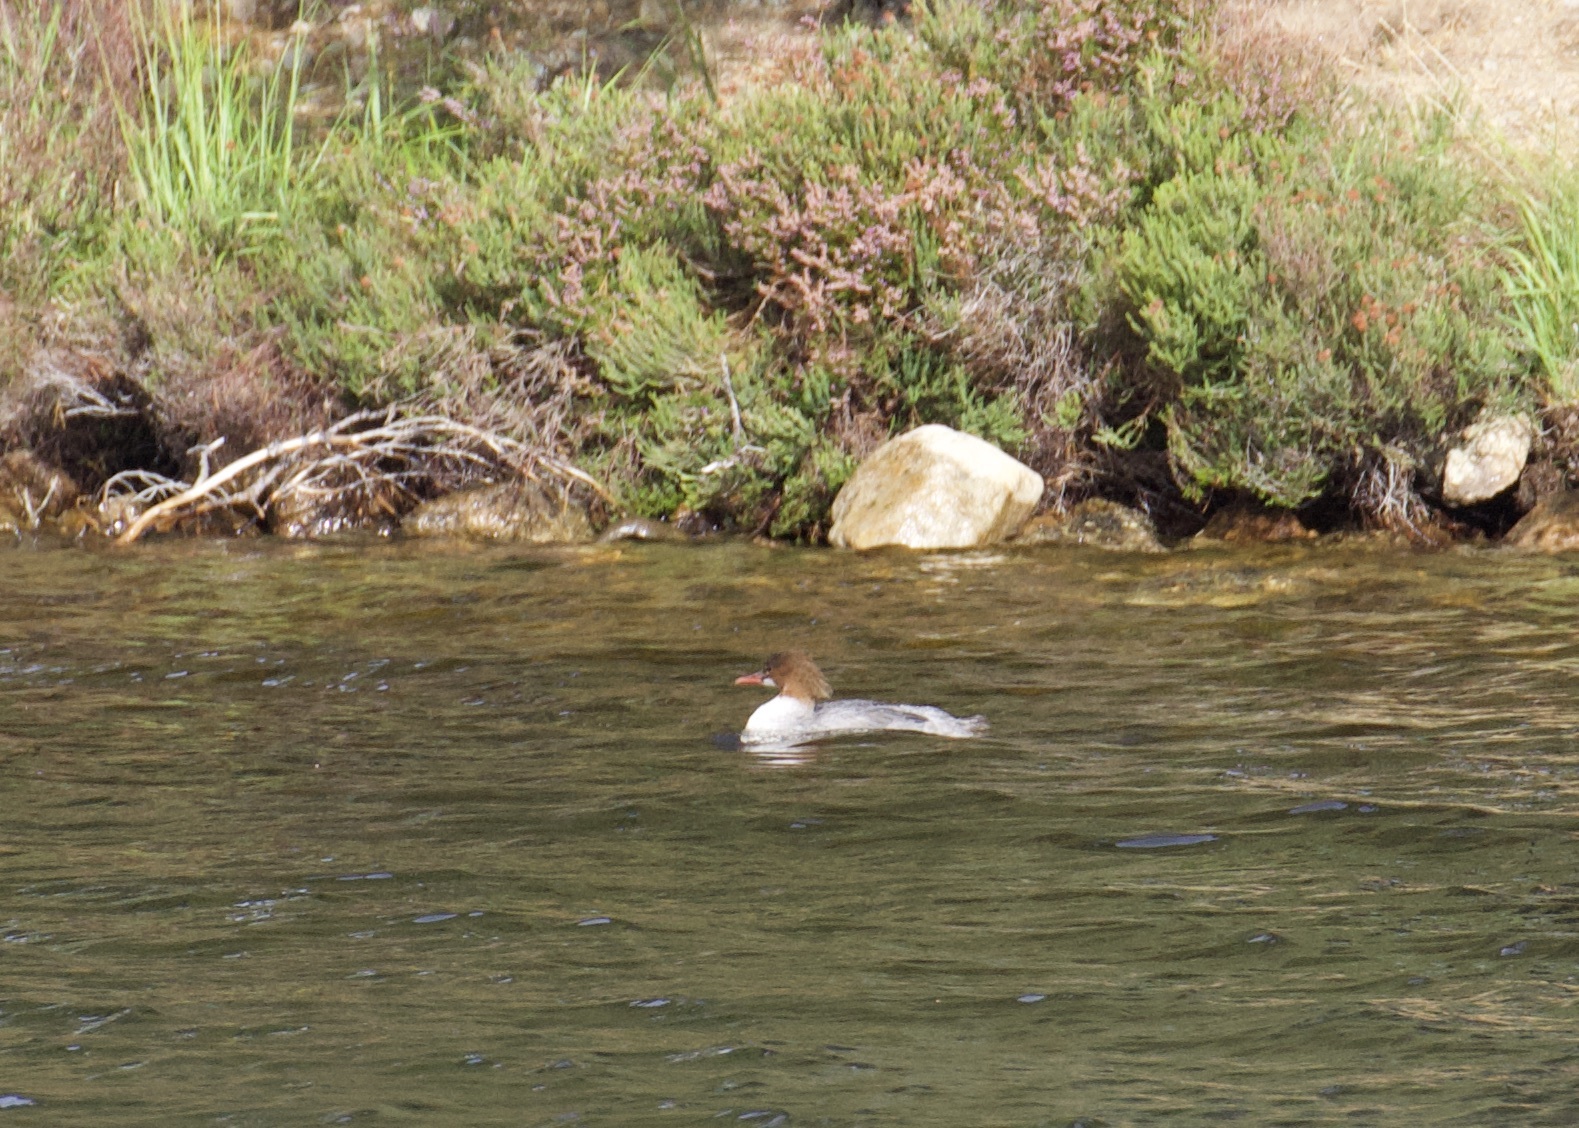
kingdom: Animalia
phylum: Chordata
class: Aves
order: Anseriformes
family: Anatidae
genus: Mergus
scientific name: Mergus merganser
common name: Common merganser
